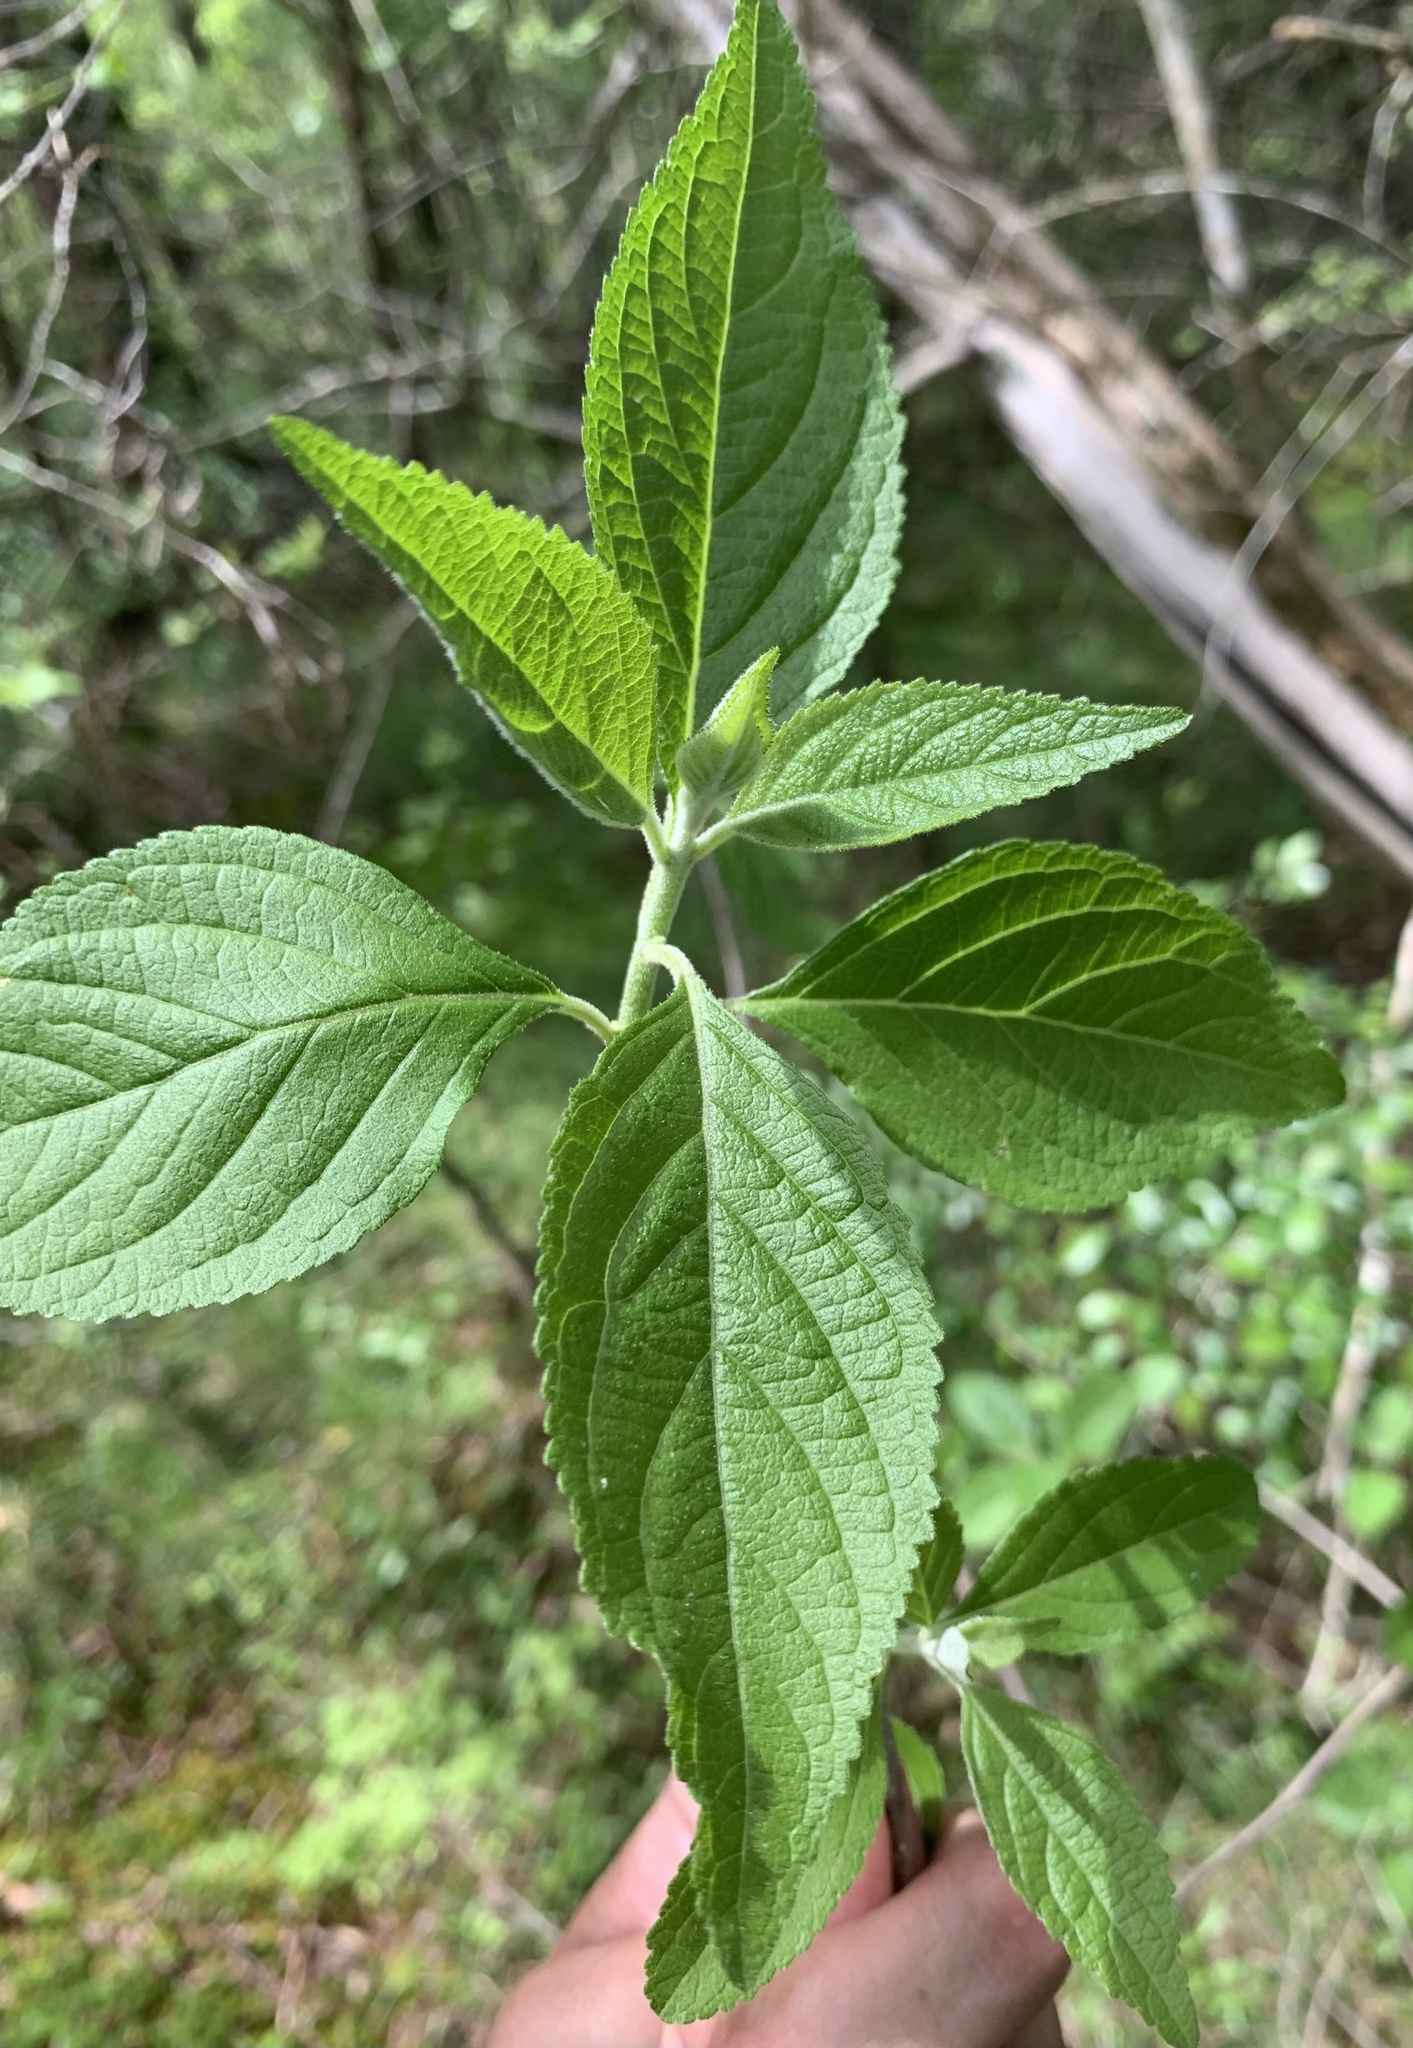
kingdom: Plantae
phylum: Tracheophyta
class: Magnoliopsida
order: Lamiales
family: Lamiaceae
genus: Callicarpa
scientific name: Callicarpa americana
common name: American beautyberry
